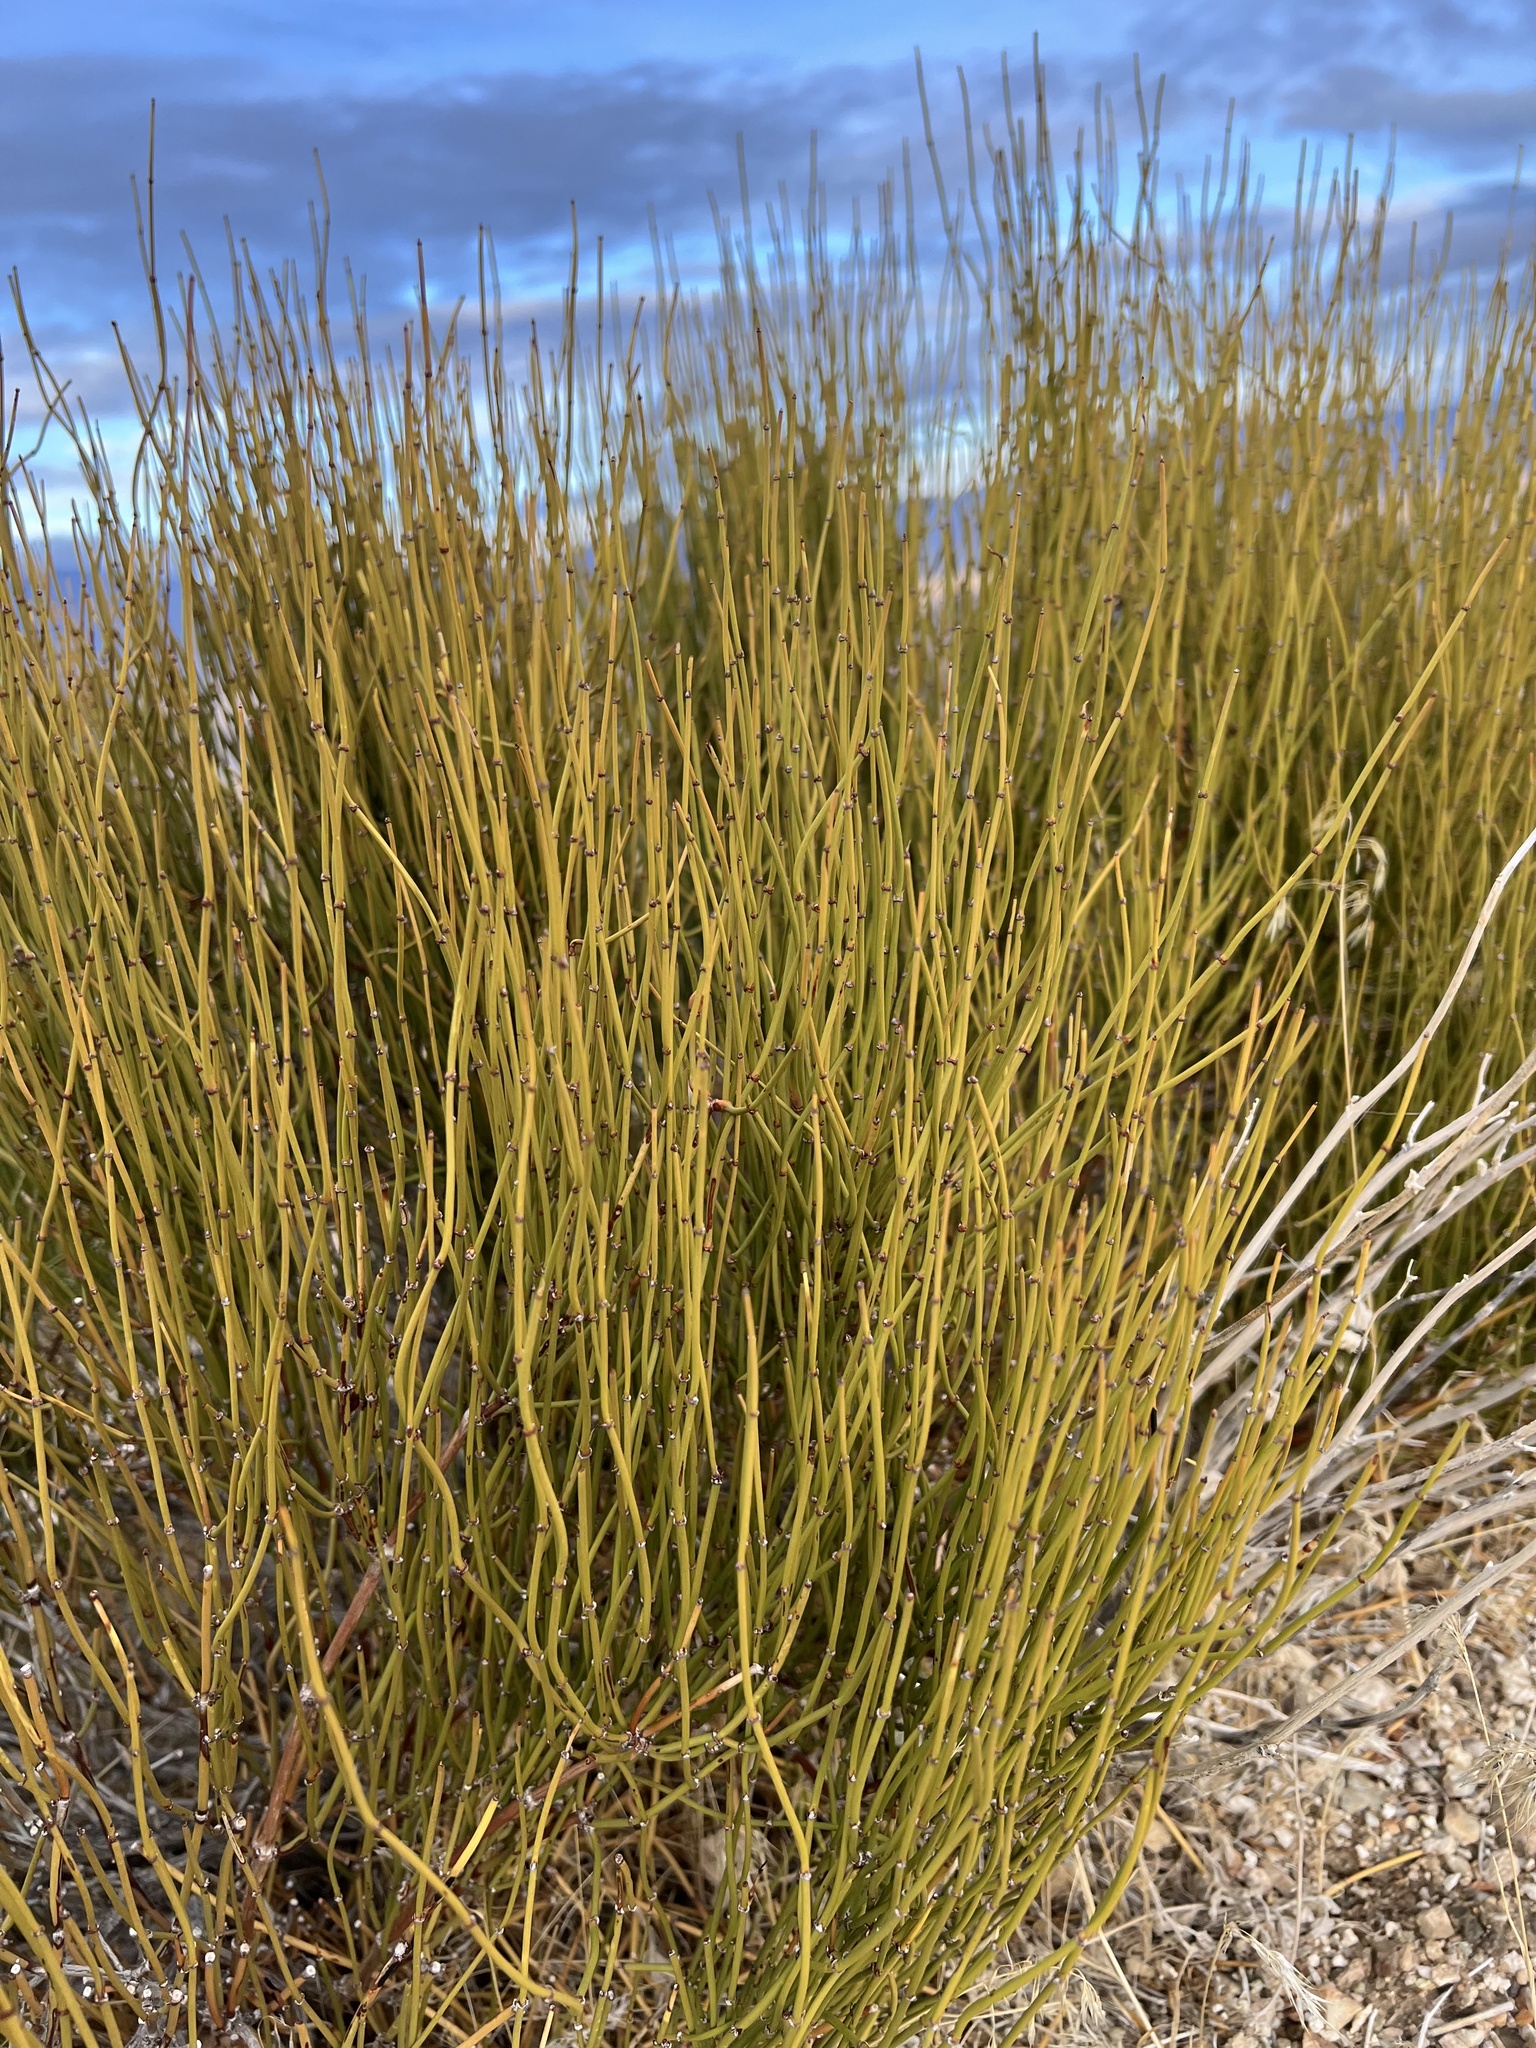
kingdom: Plantae
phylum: Tracheophyta
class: Gnetopsida
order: Ephedrales
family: Ephedraceae
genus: Ephedra
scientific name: Ephedra viridis
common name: Green ephedra
